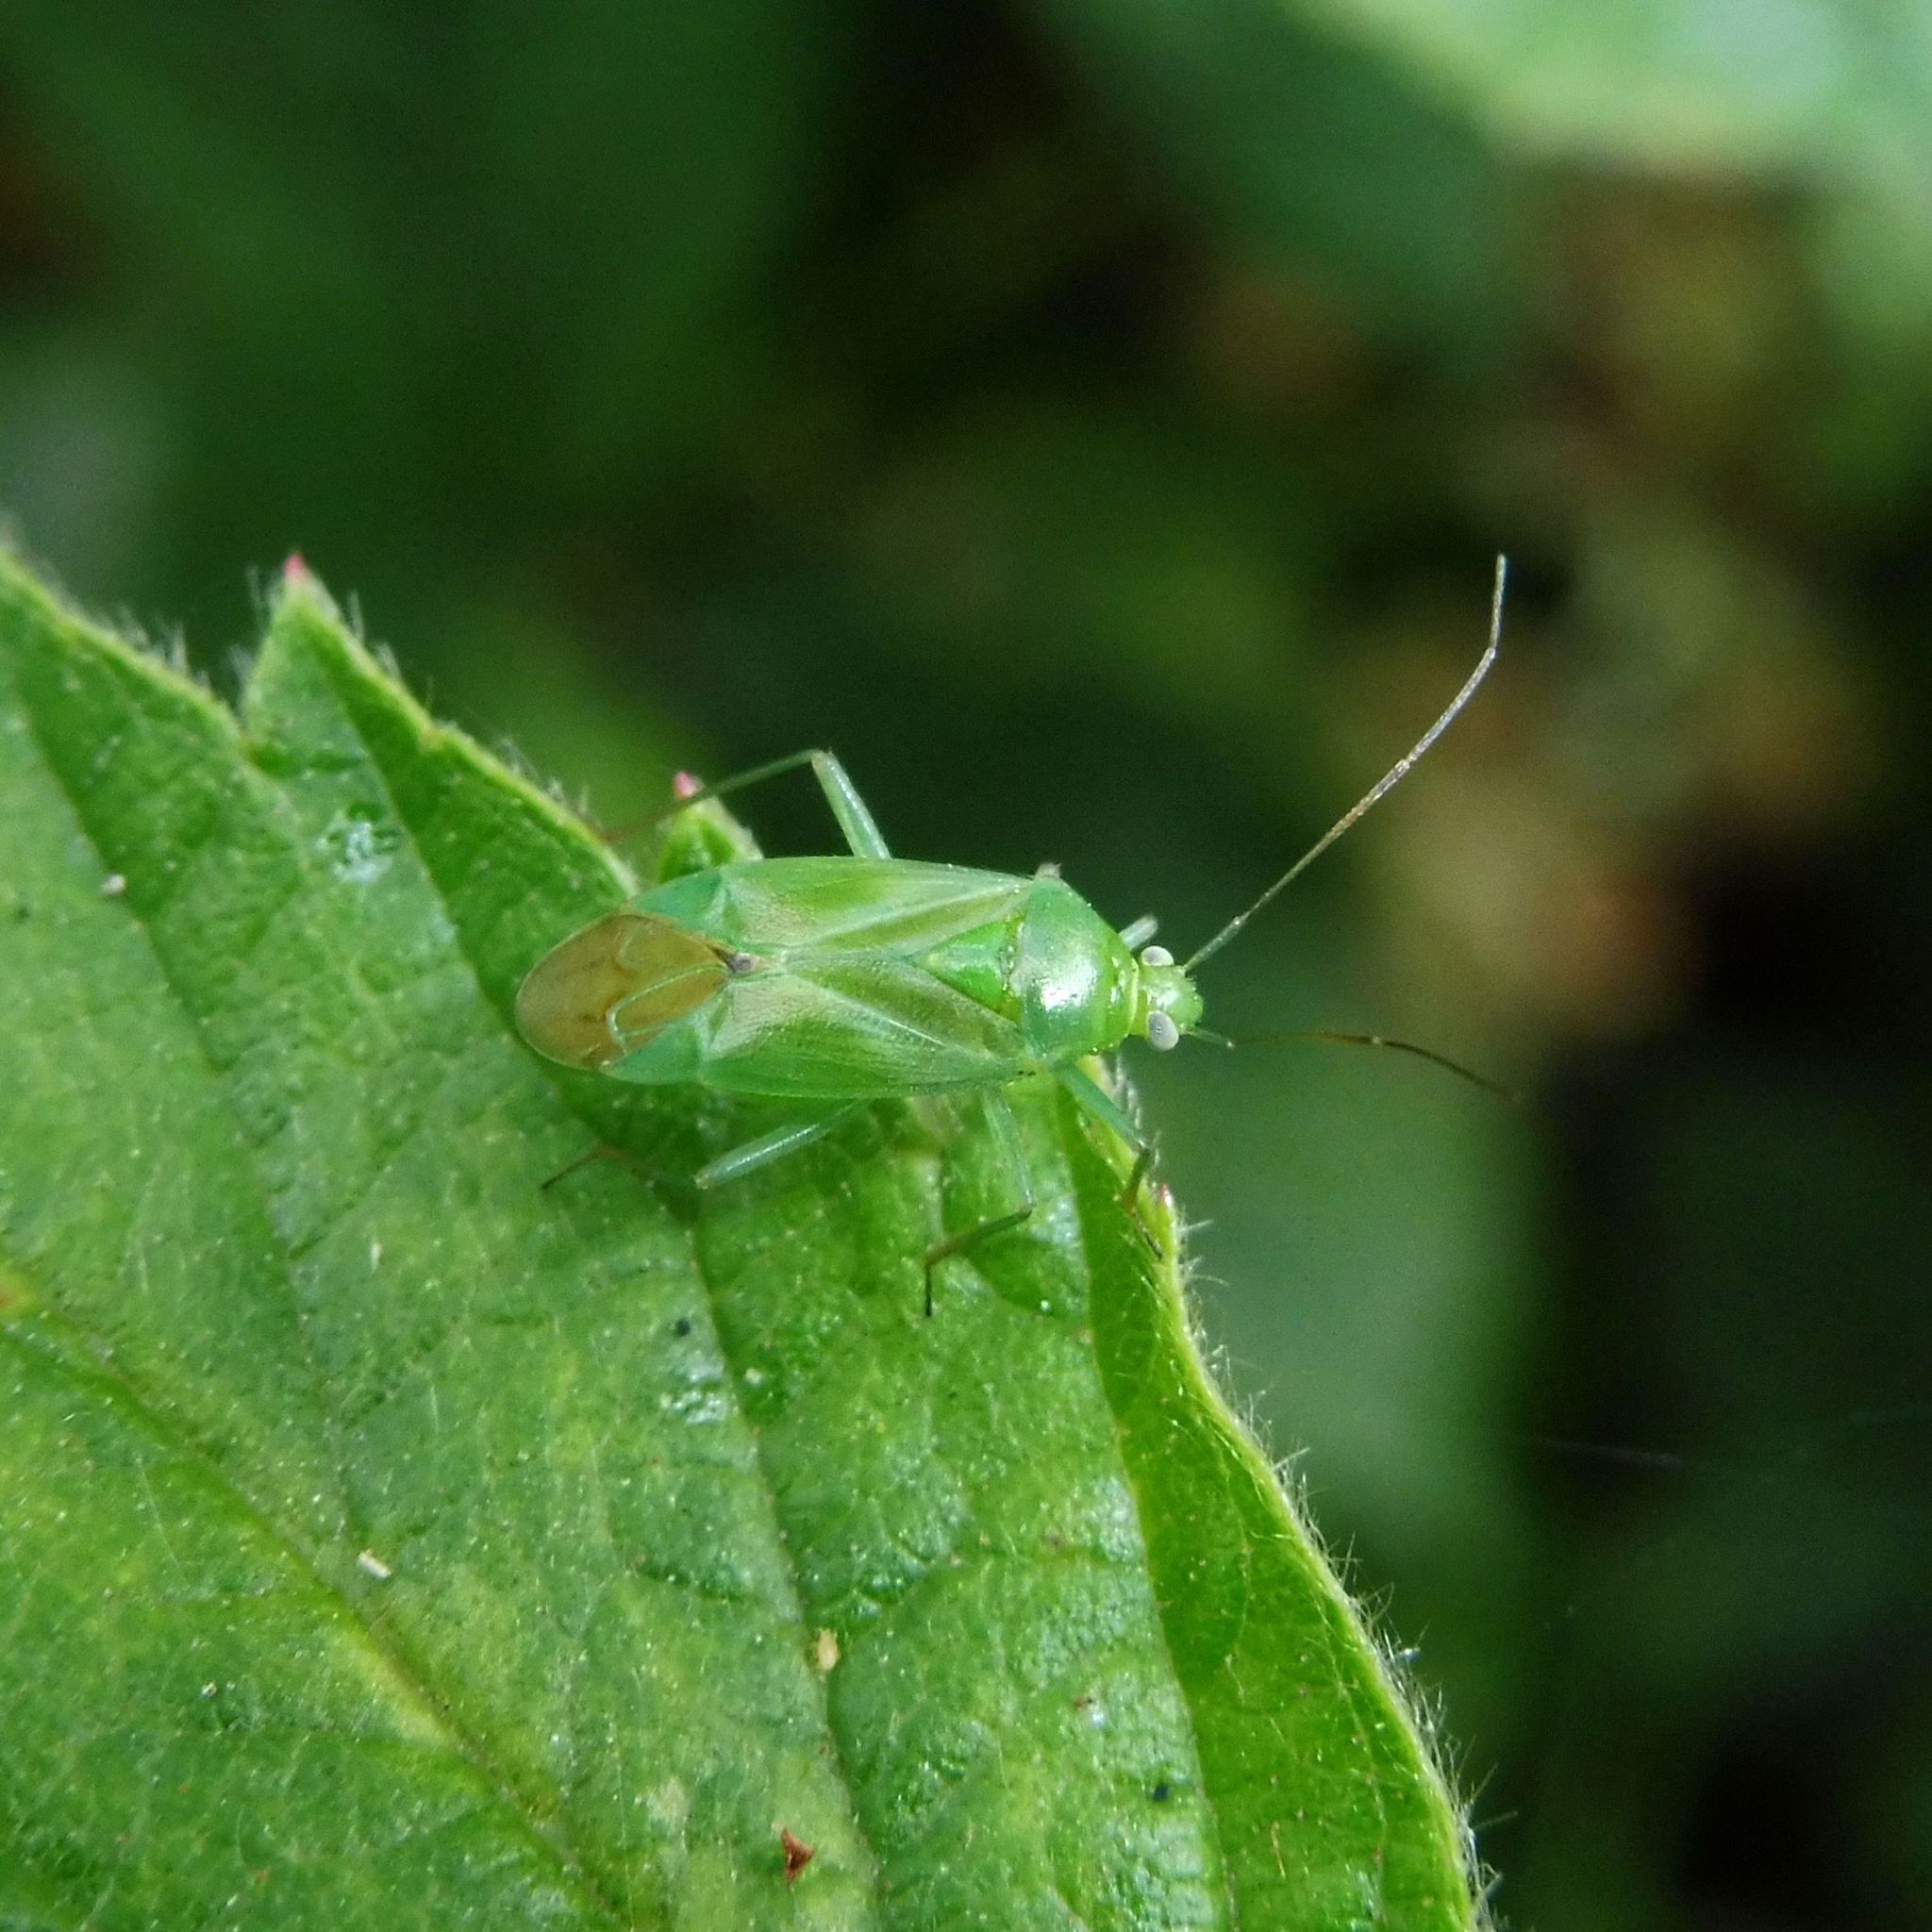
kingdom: Animalia
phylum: Arthropoda
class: Insecta
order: Hemiptera
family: Miridae
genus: Lygocoris
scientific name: Lygocoris pabulinus
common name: Common green capsid
